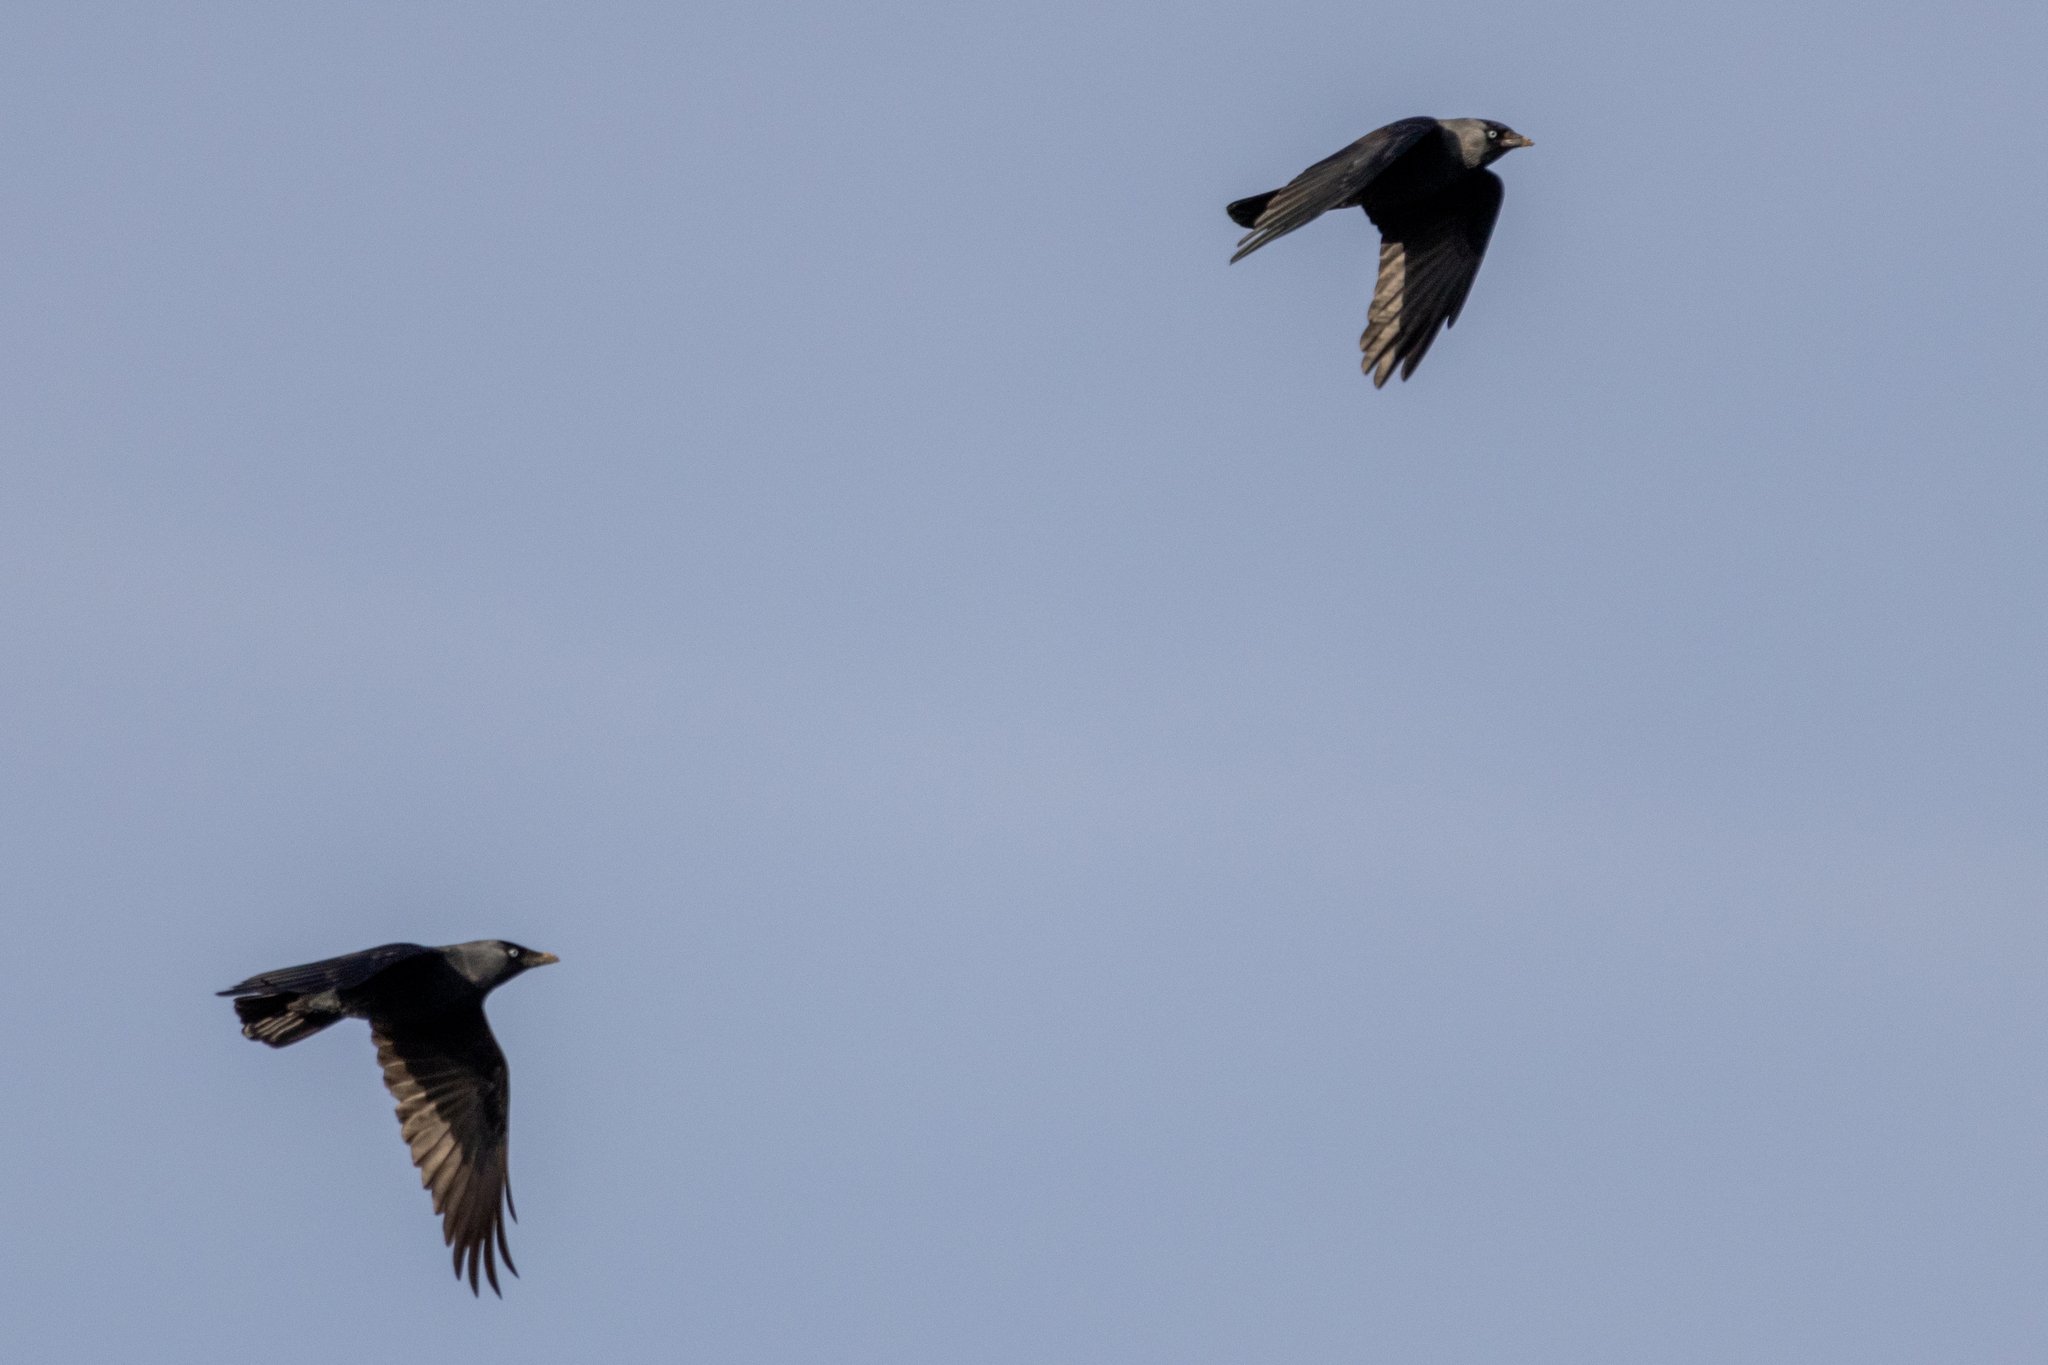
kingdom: Animalia
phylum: Chordata
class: Aves
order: Passeriformes
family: Corvidae
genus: Coloeus
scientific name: Coloeus monedula
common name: Western jackdaw
